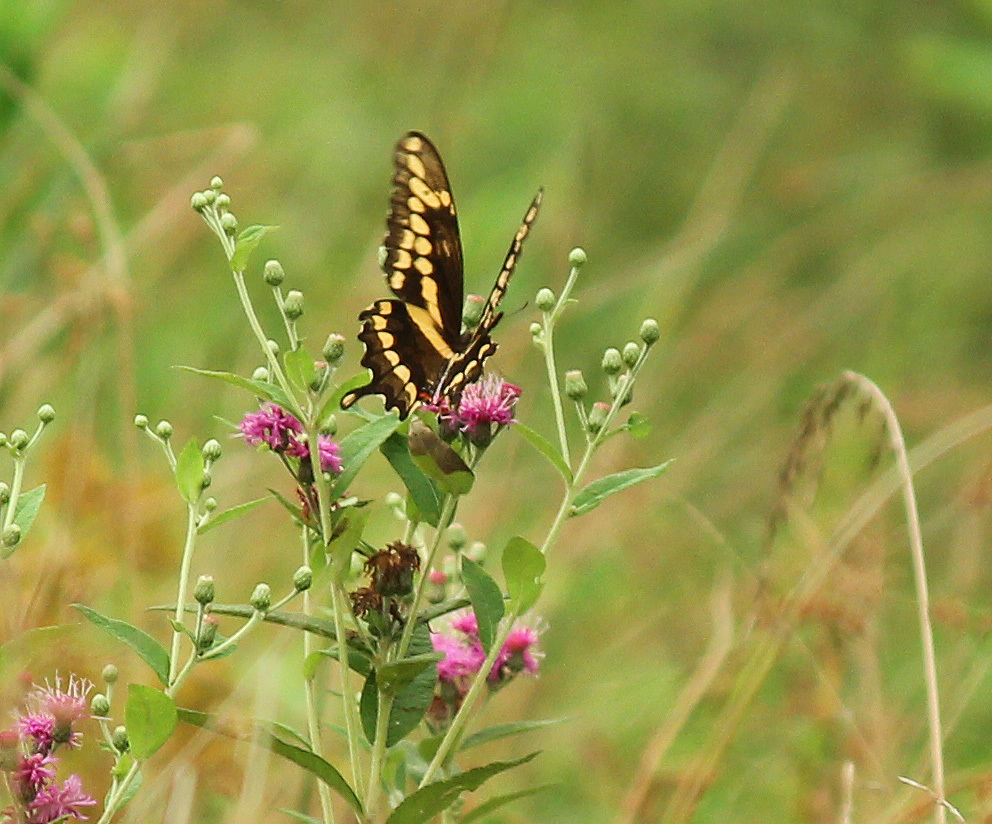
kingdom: Animalia
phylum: Arthropoda
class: Insecta
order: Lepidoptera
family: Papilionidae
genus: Papilio
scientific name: Papilio cresphontes
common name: Giant swallowtail
